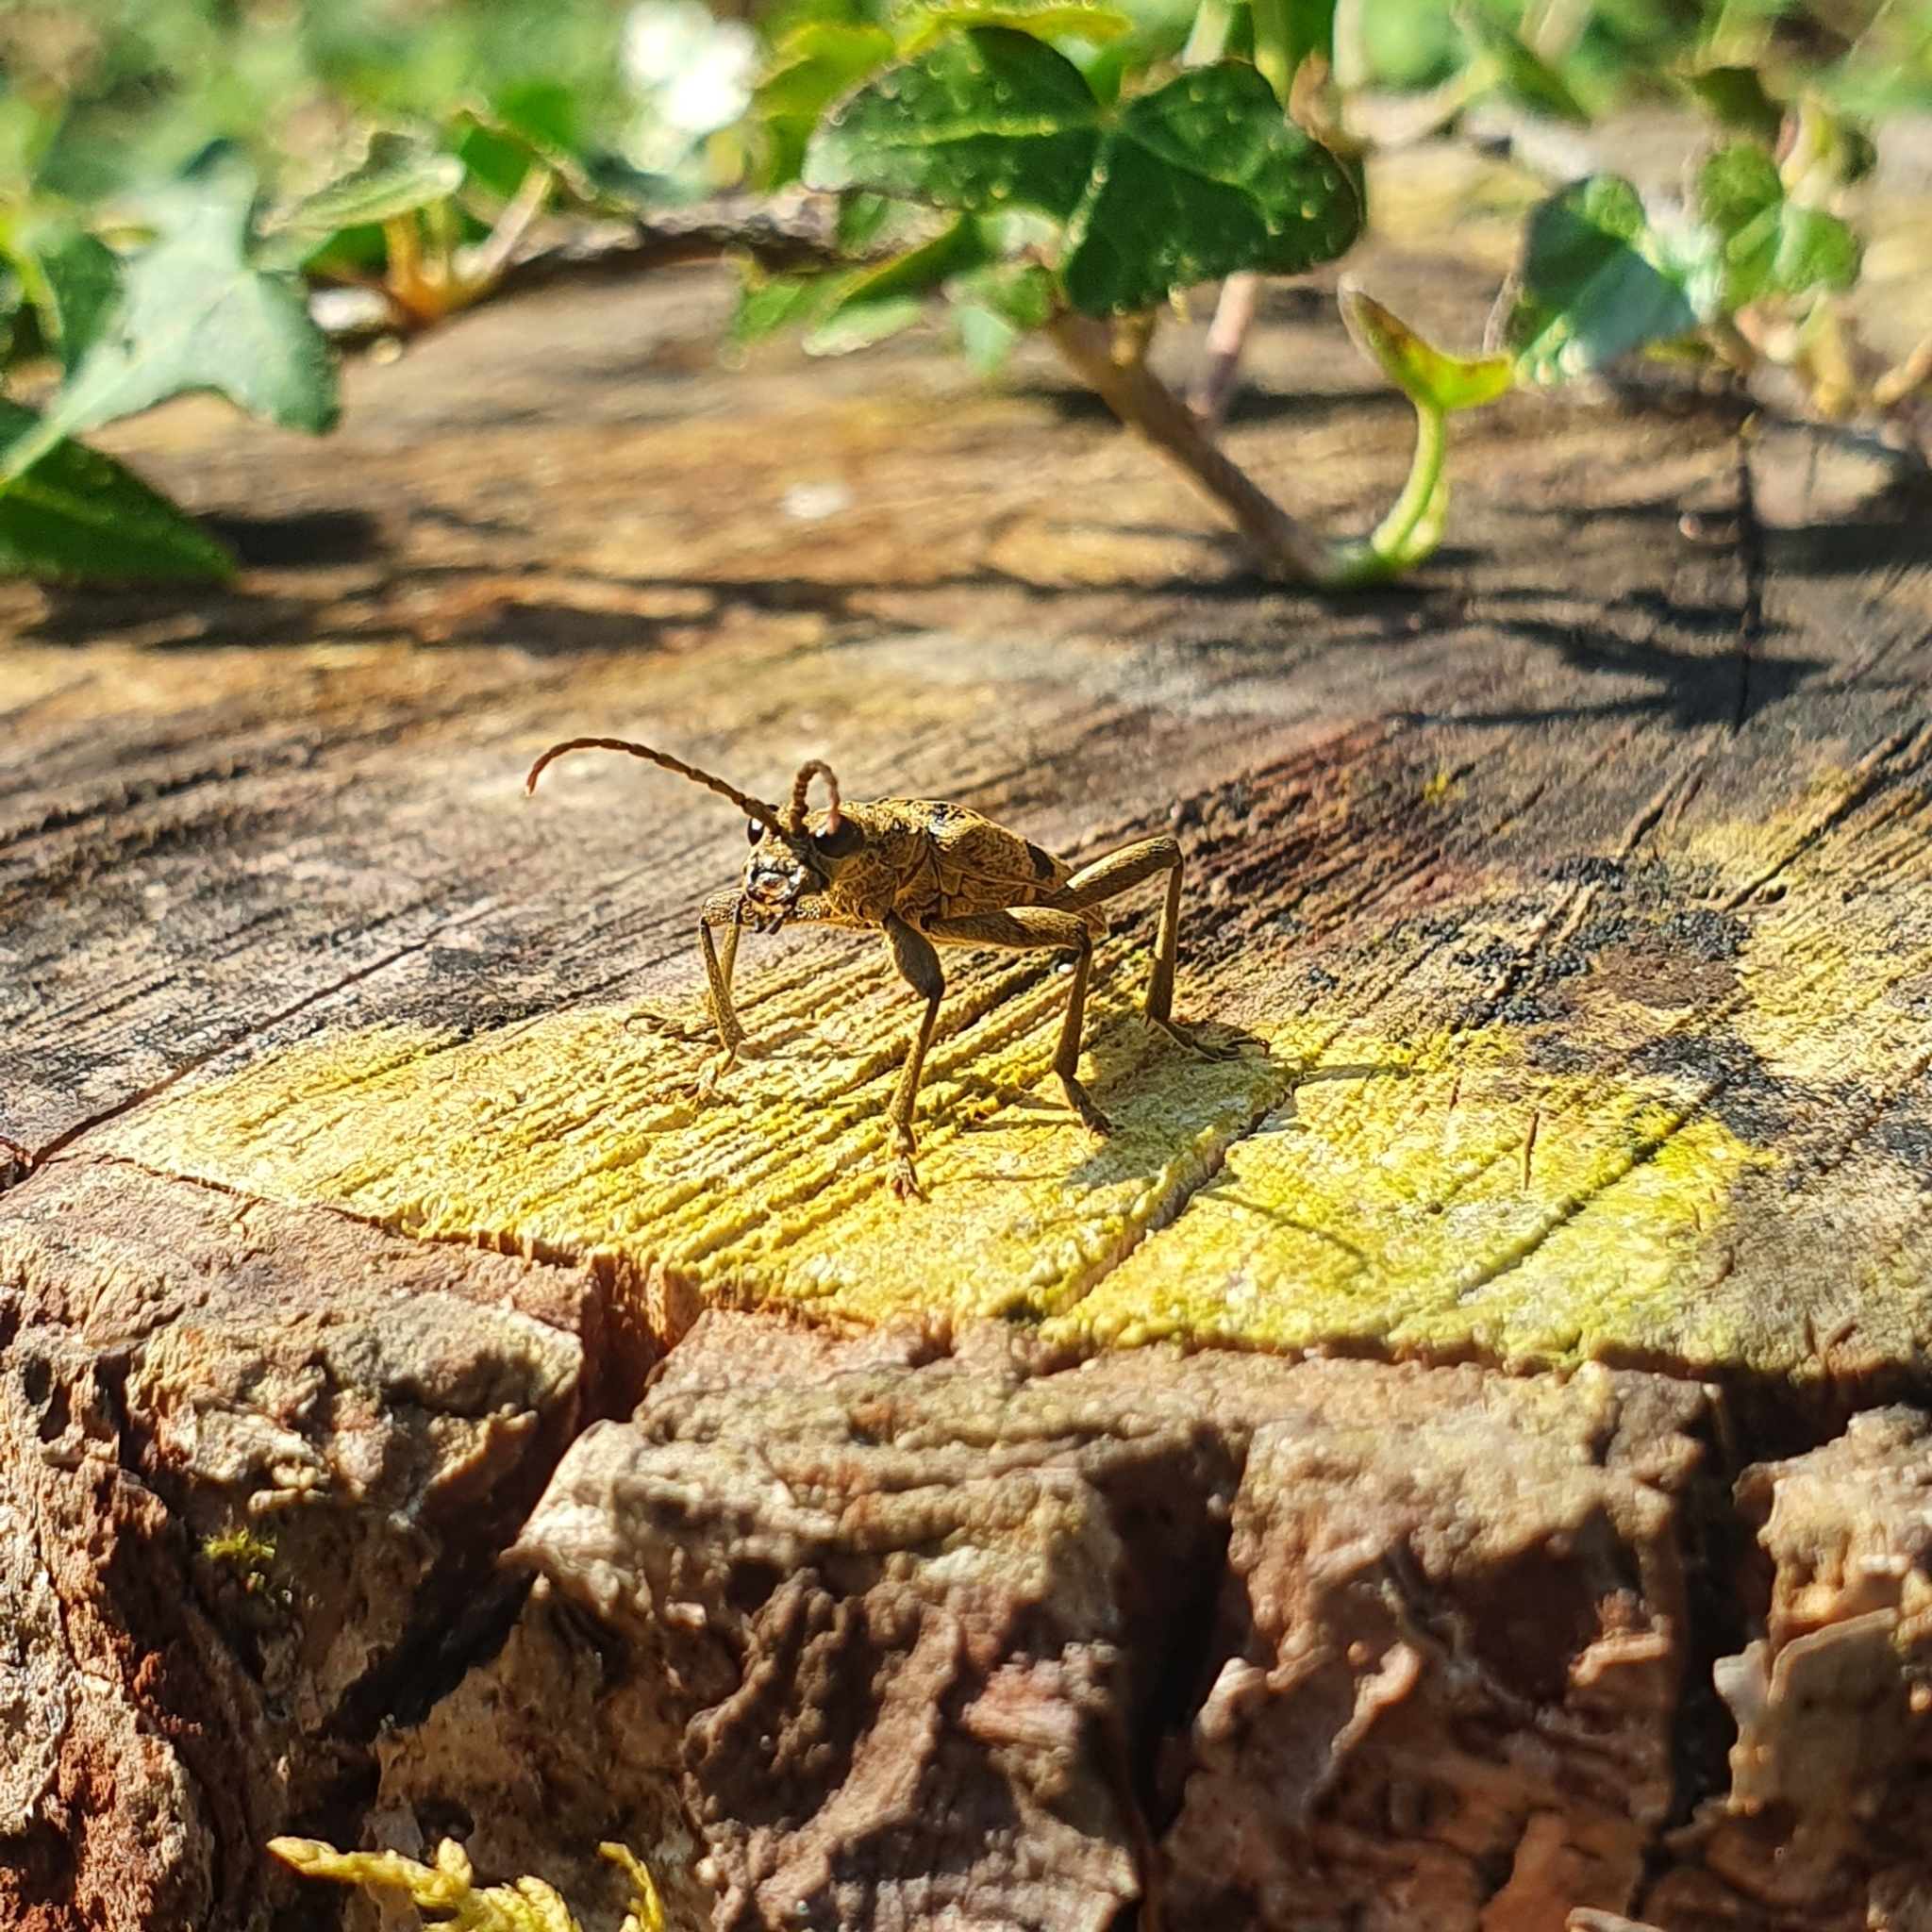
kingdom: Animalia
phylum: Arthropoda
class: Insecta
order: Coleoptera
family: Cerambycidae
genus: Rhagium
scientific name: Rhagium mordax
